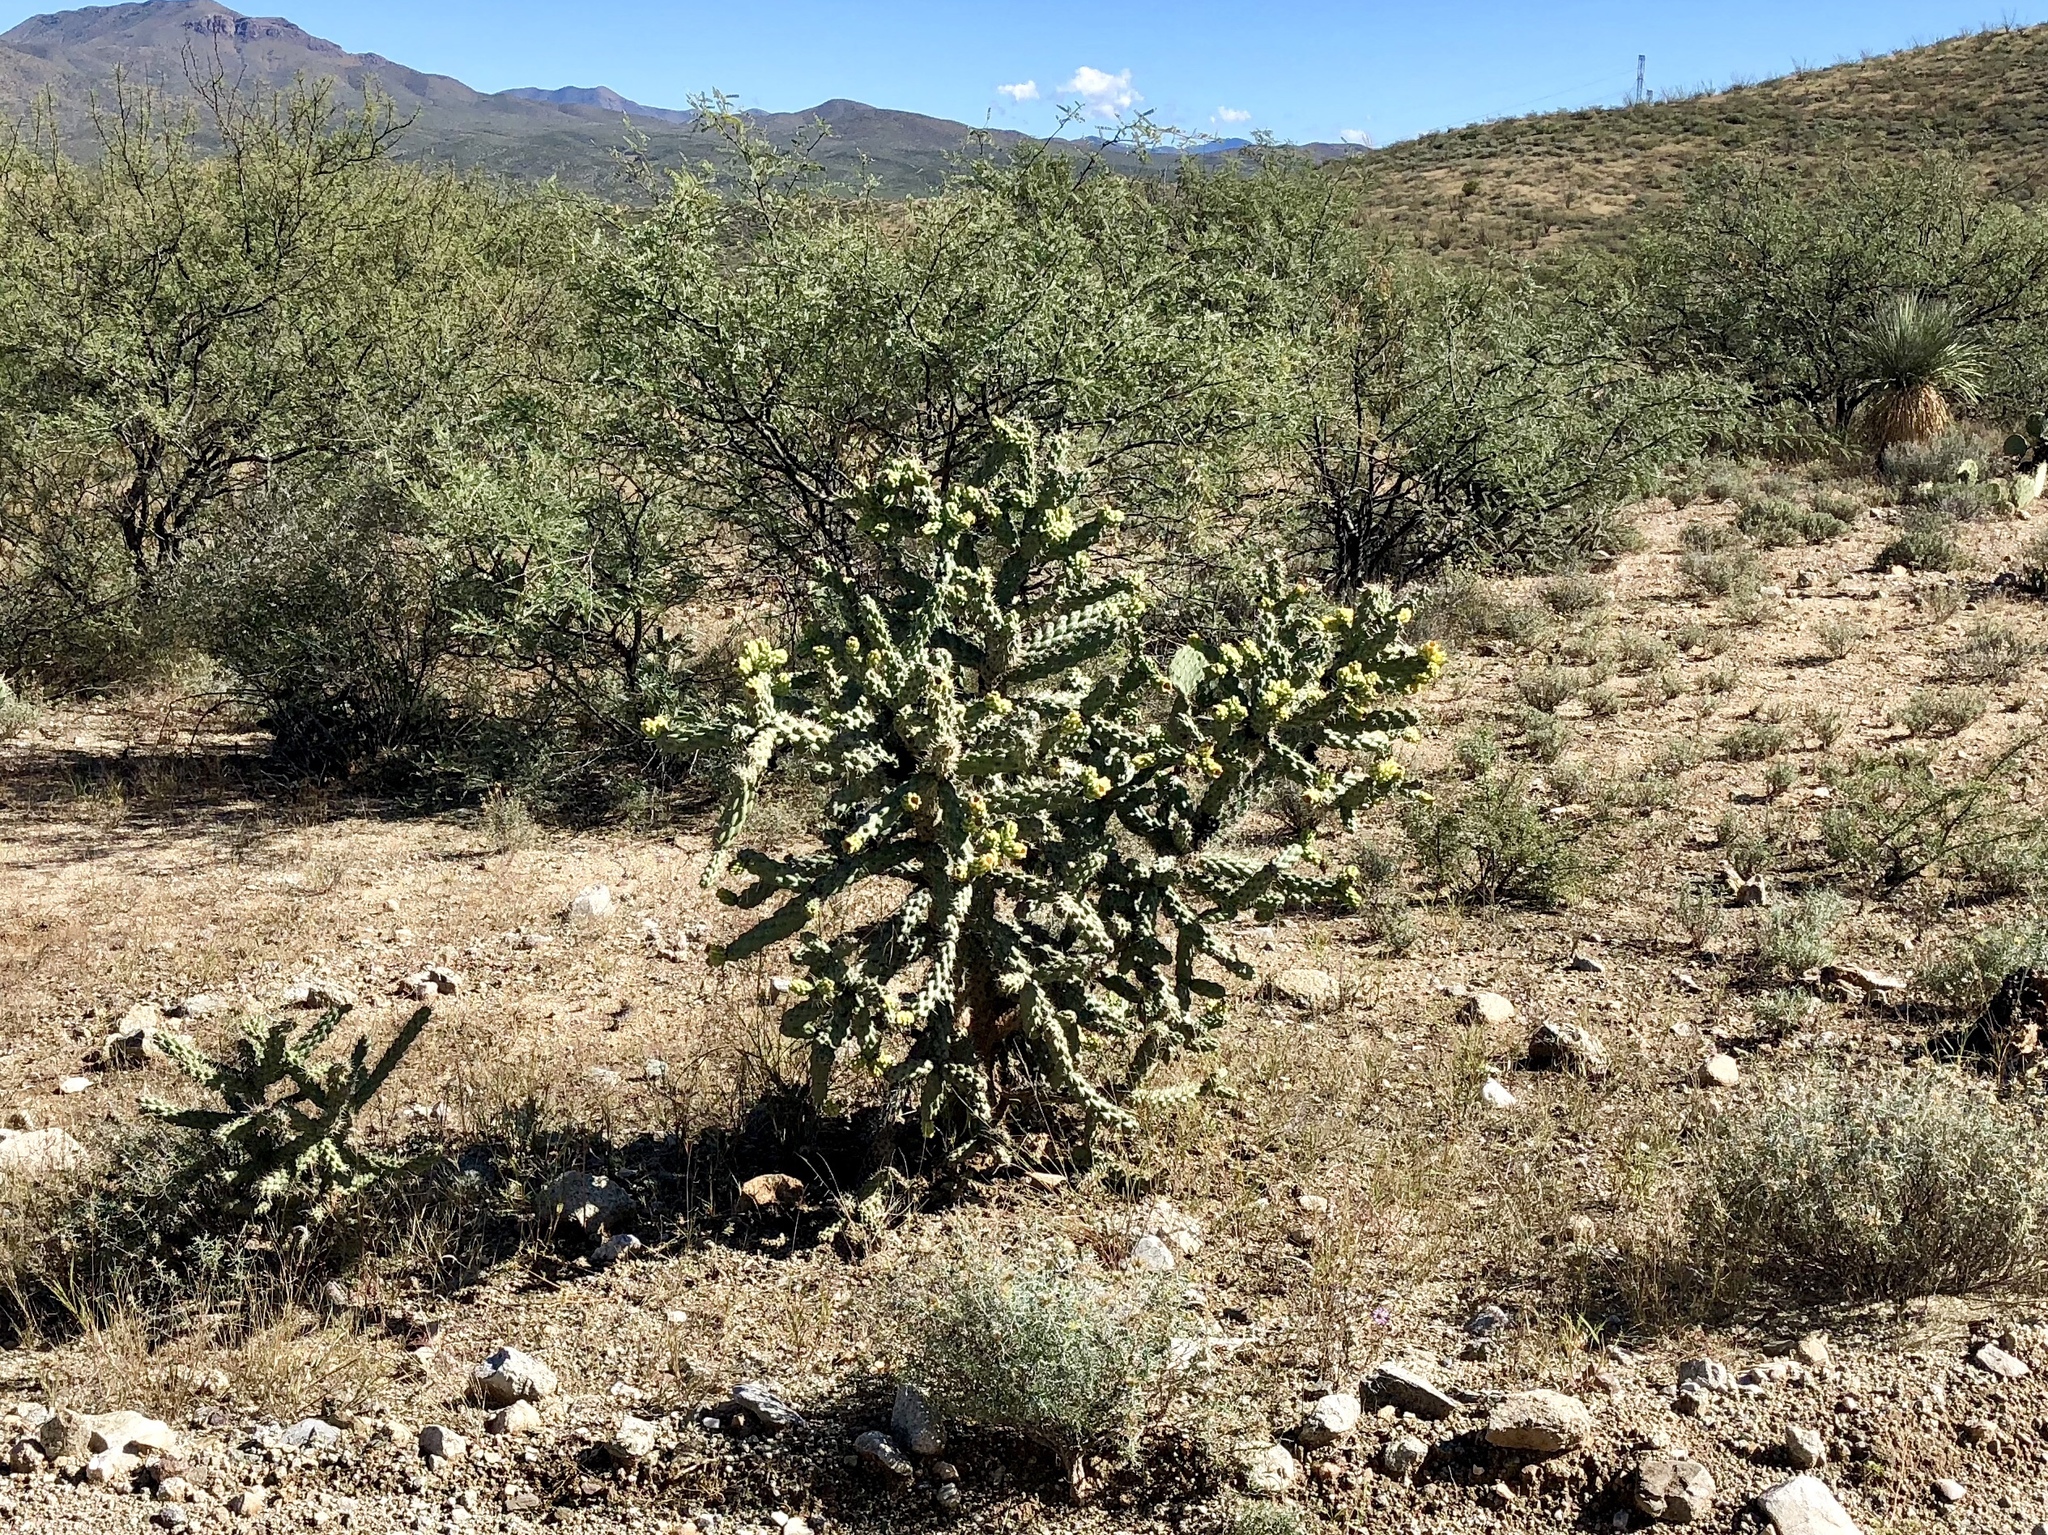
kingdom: Plantae
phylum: Tracheophyta
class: Magnoliopsida
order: Caryophyllales
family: Cactaceae
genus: Cylindropuntia
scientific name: Cylindropuntia fulgida
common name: Jumping cholla
